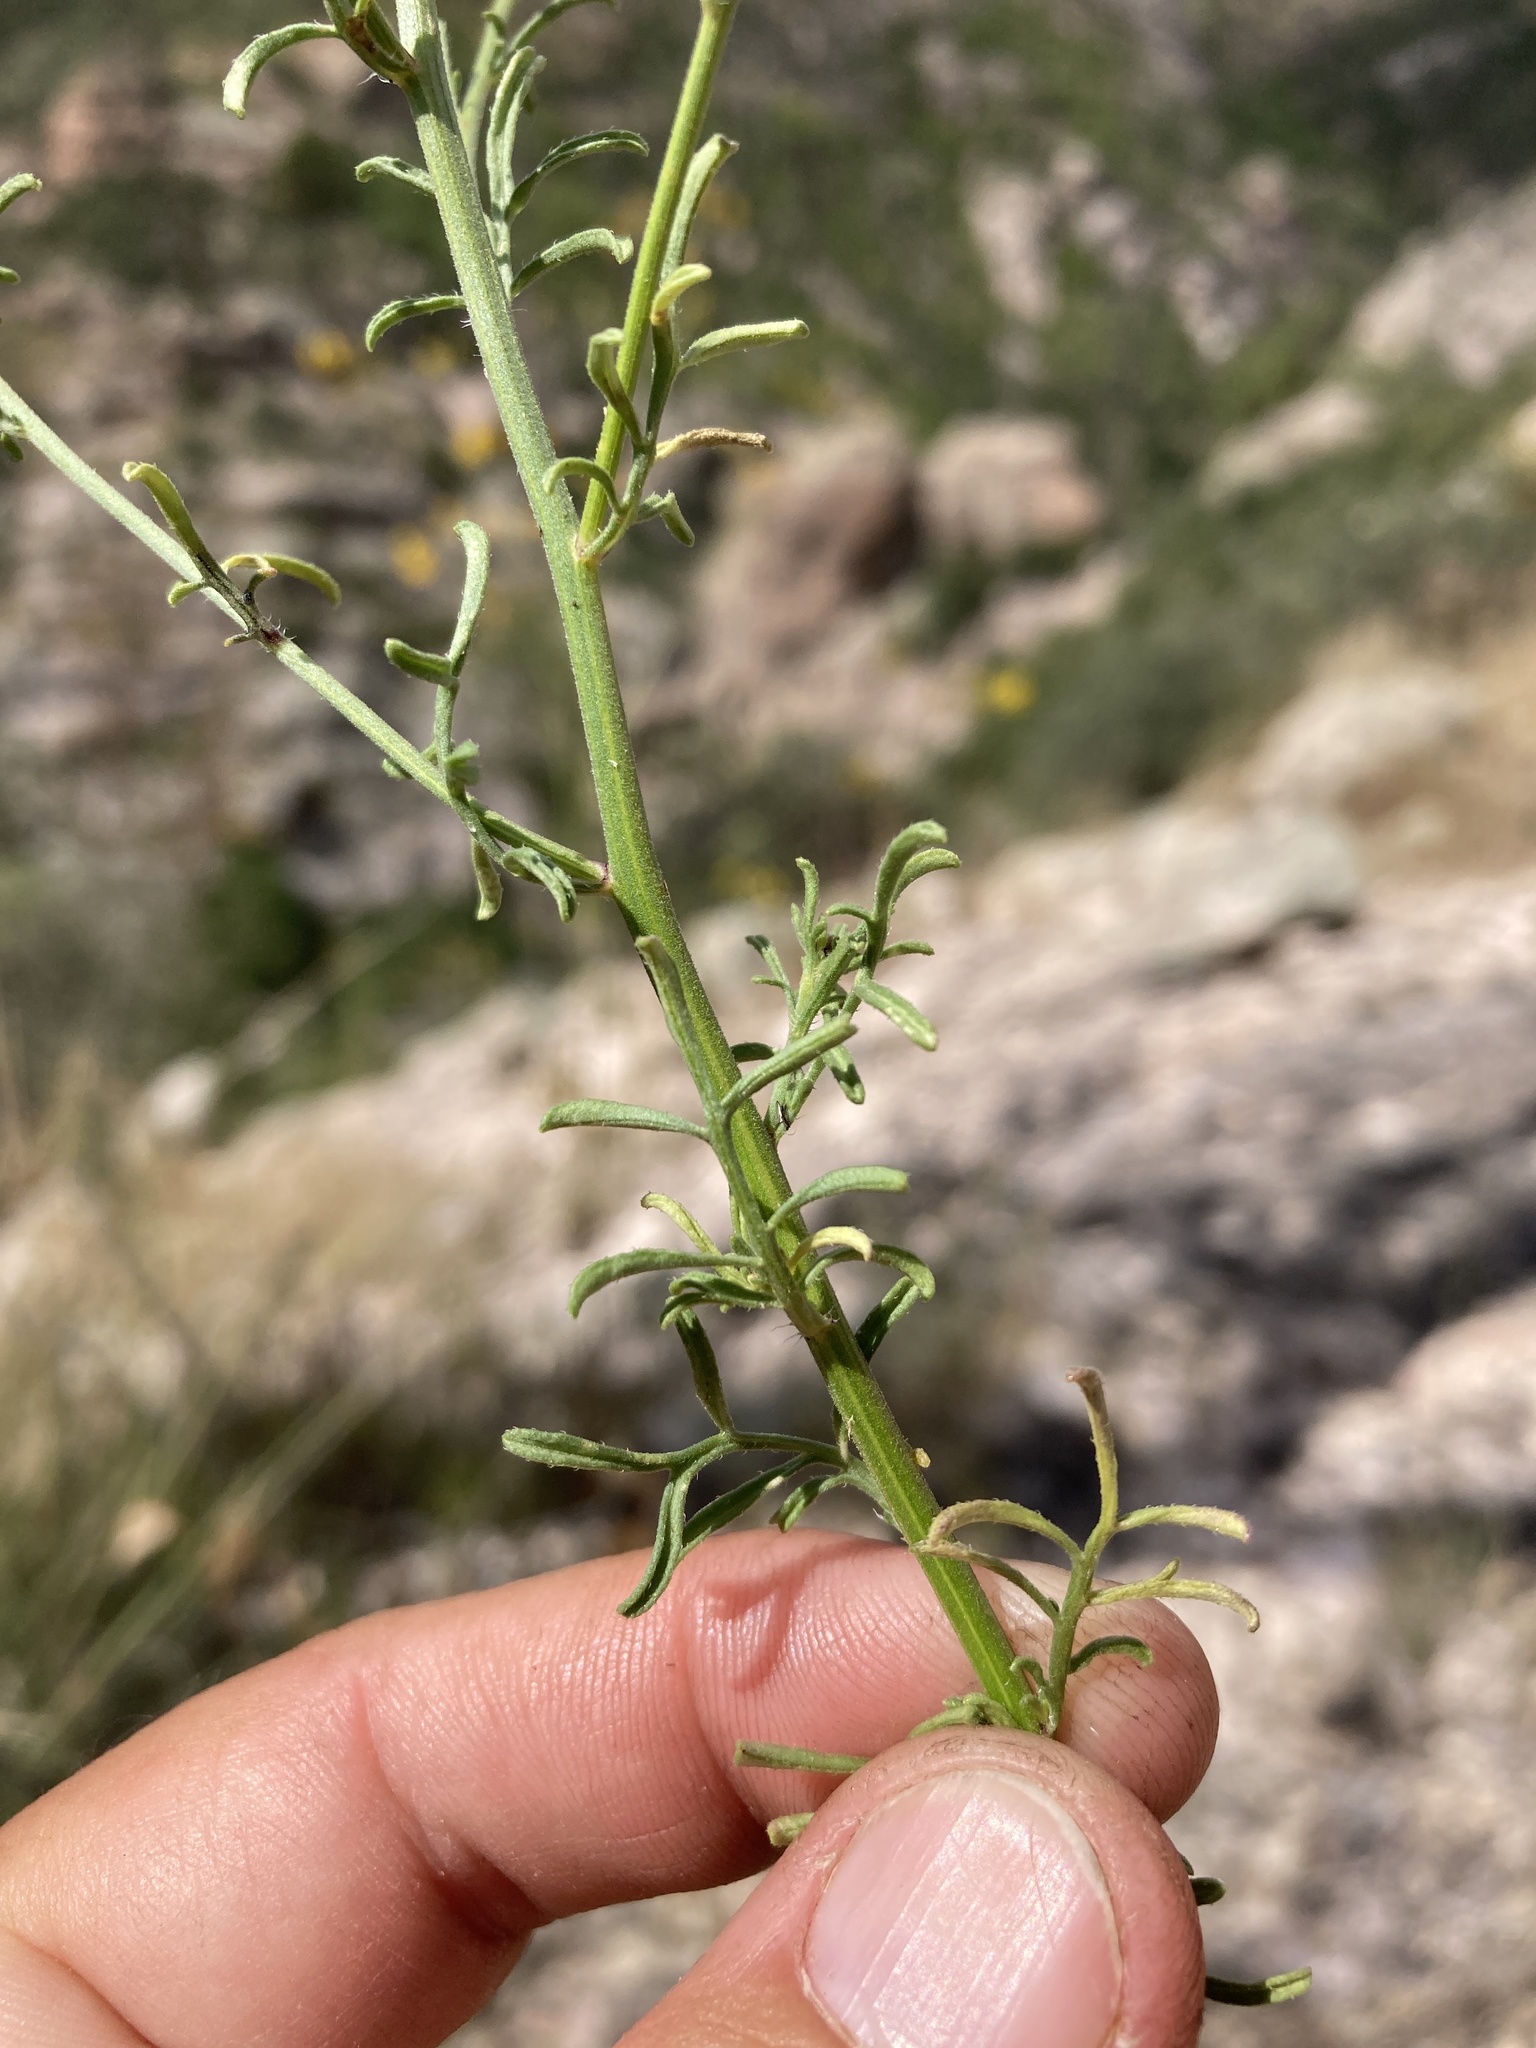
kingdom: Plantae
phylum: Tracheophyta
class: Magnoliopsida
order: Asterales
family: Asteraceae
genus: Erigeron
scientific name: Erigeron neomexicanus
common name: New mexico fleabane
